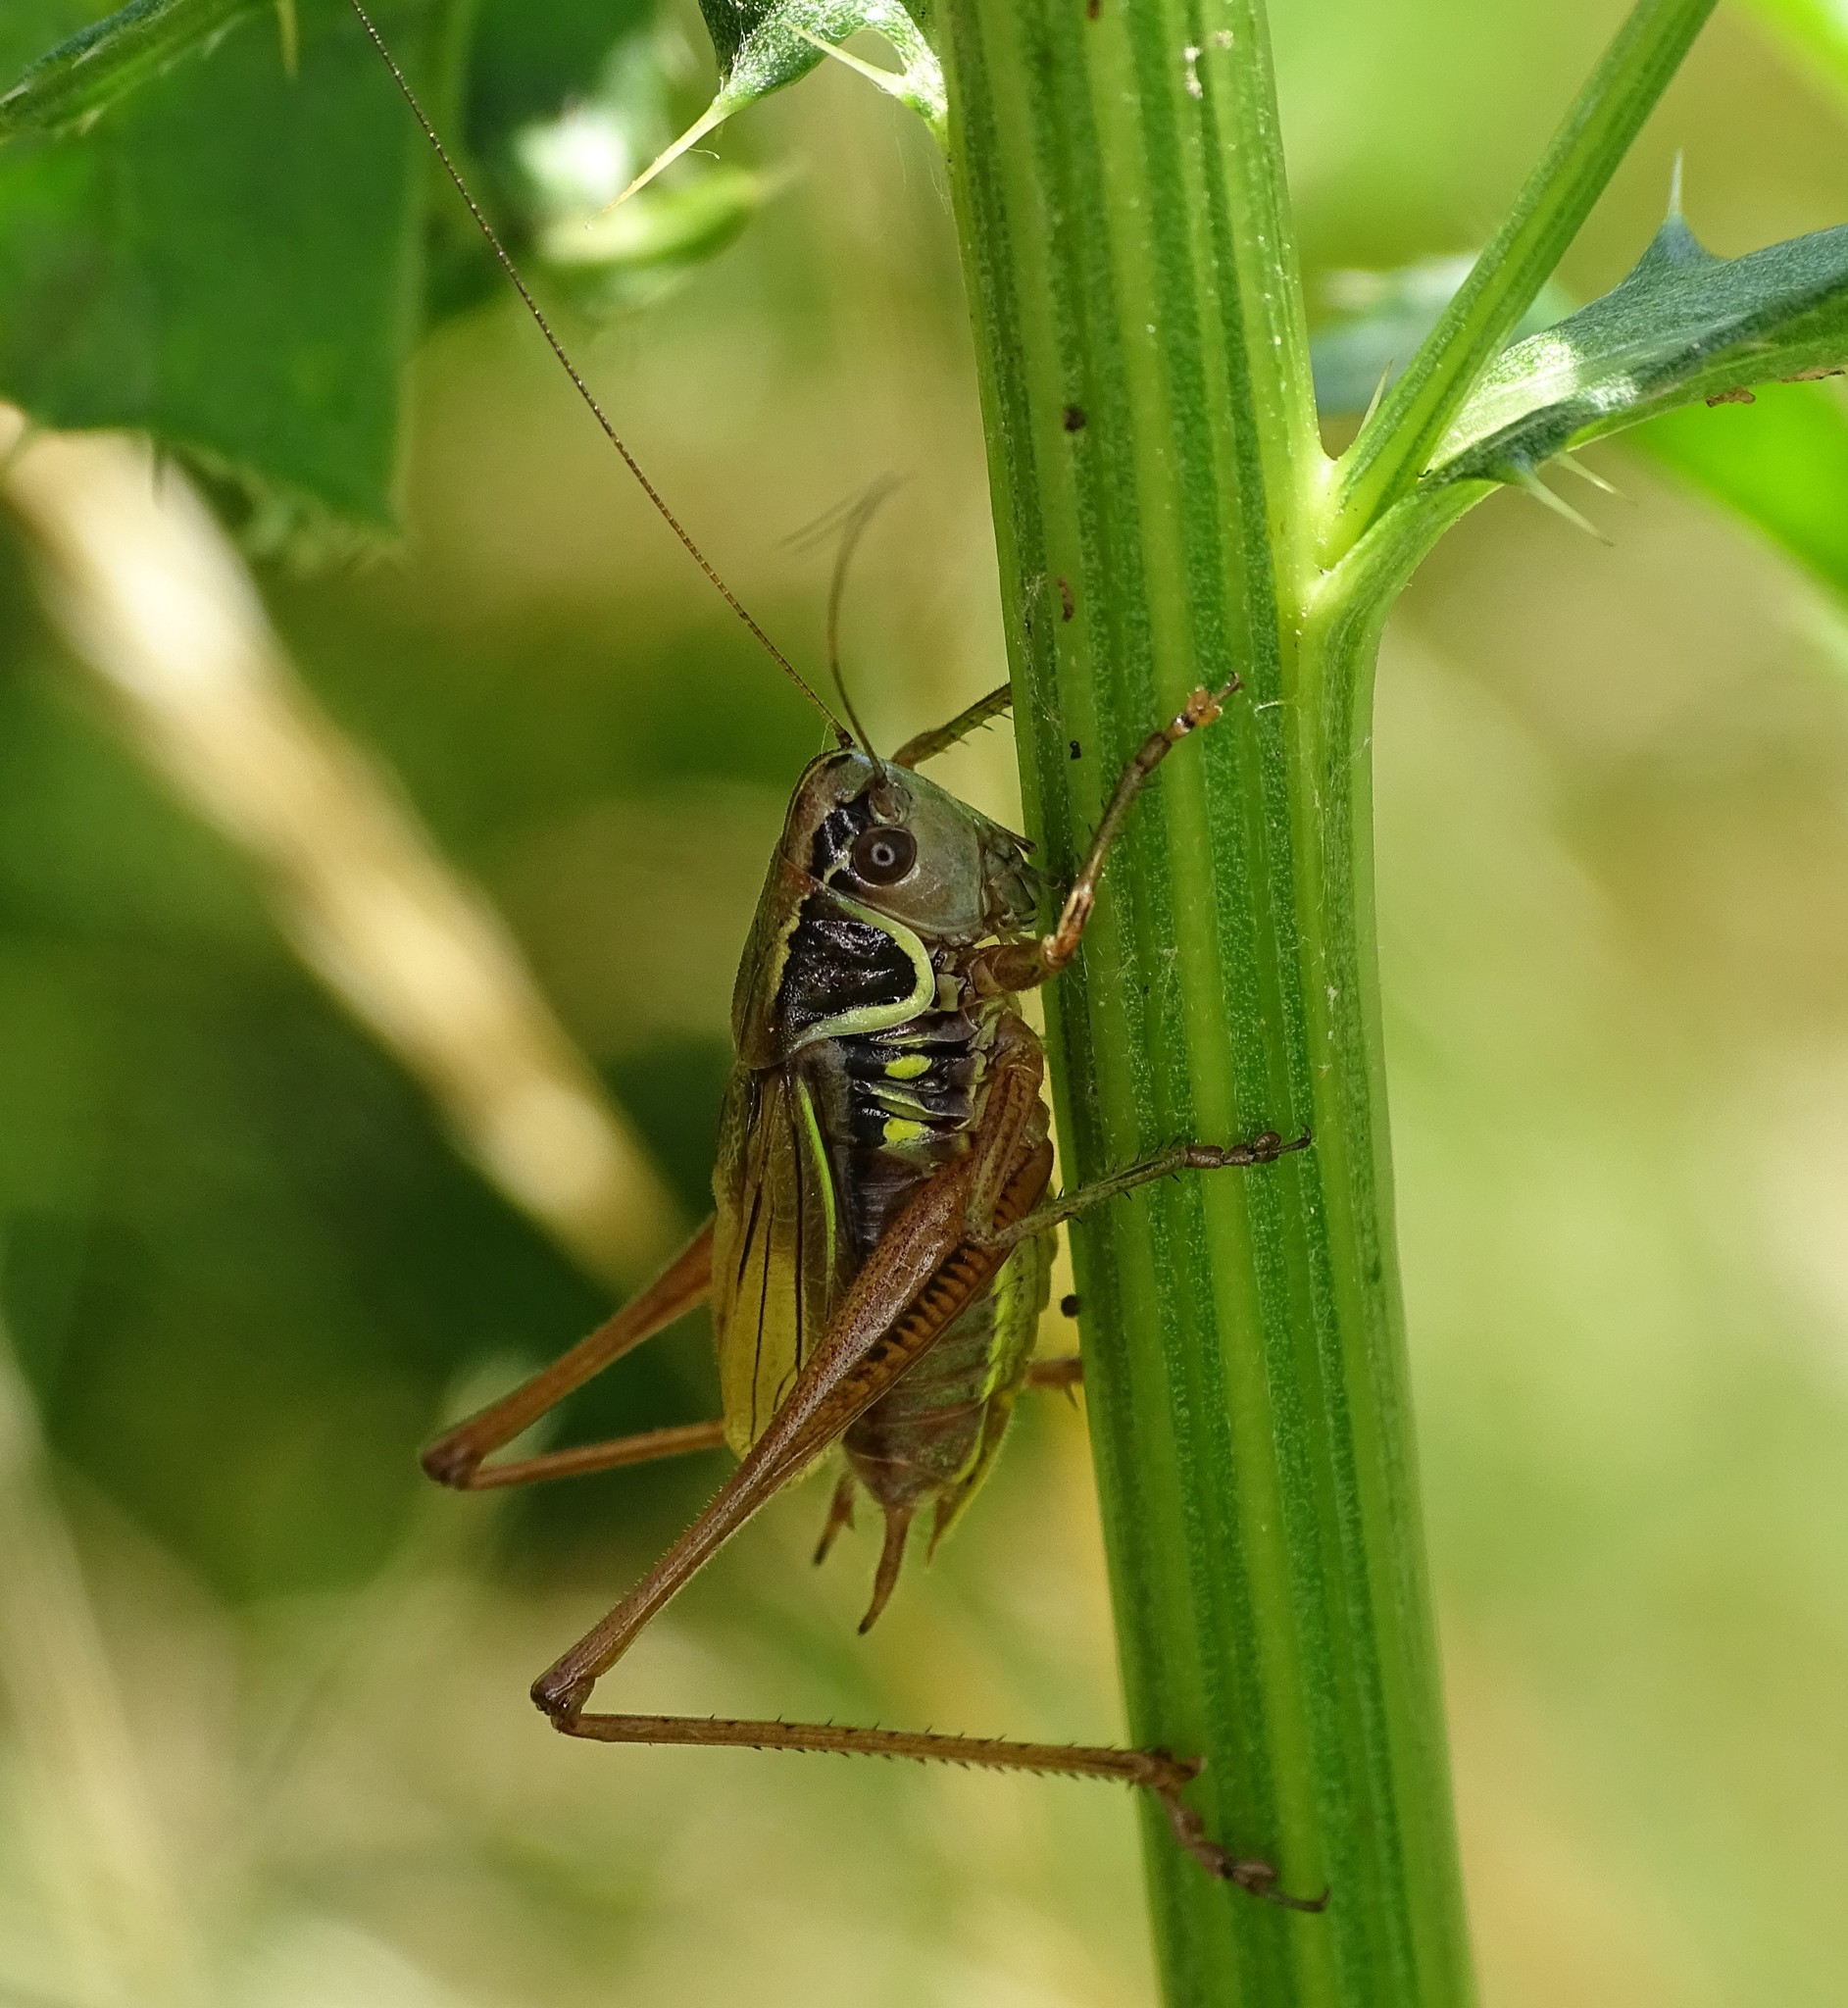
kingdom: Animalia
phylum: Arthropoda
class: Insecta
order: Orthoptera
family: Tettigoniidae
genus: Roeseliana
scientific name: Roeseliana roeselii
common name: Roesel's bush cricket
